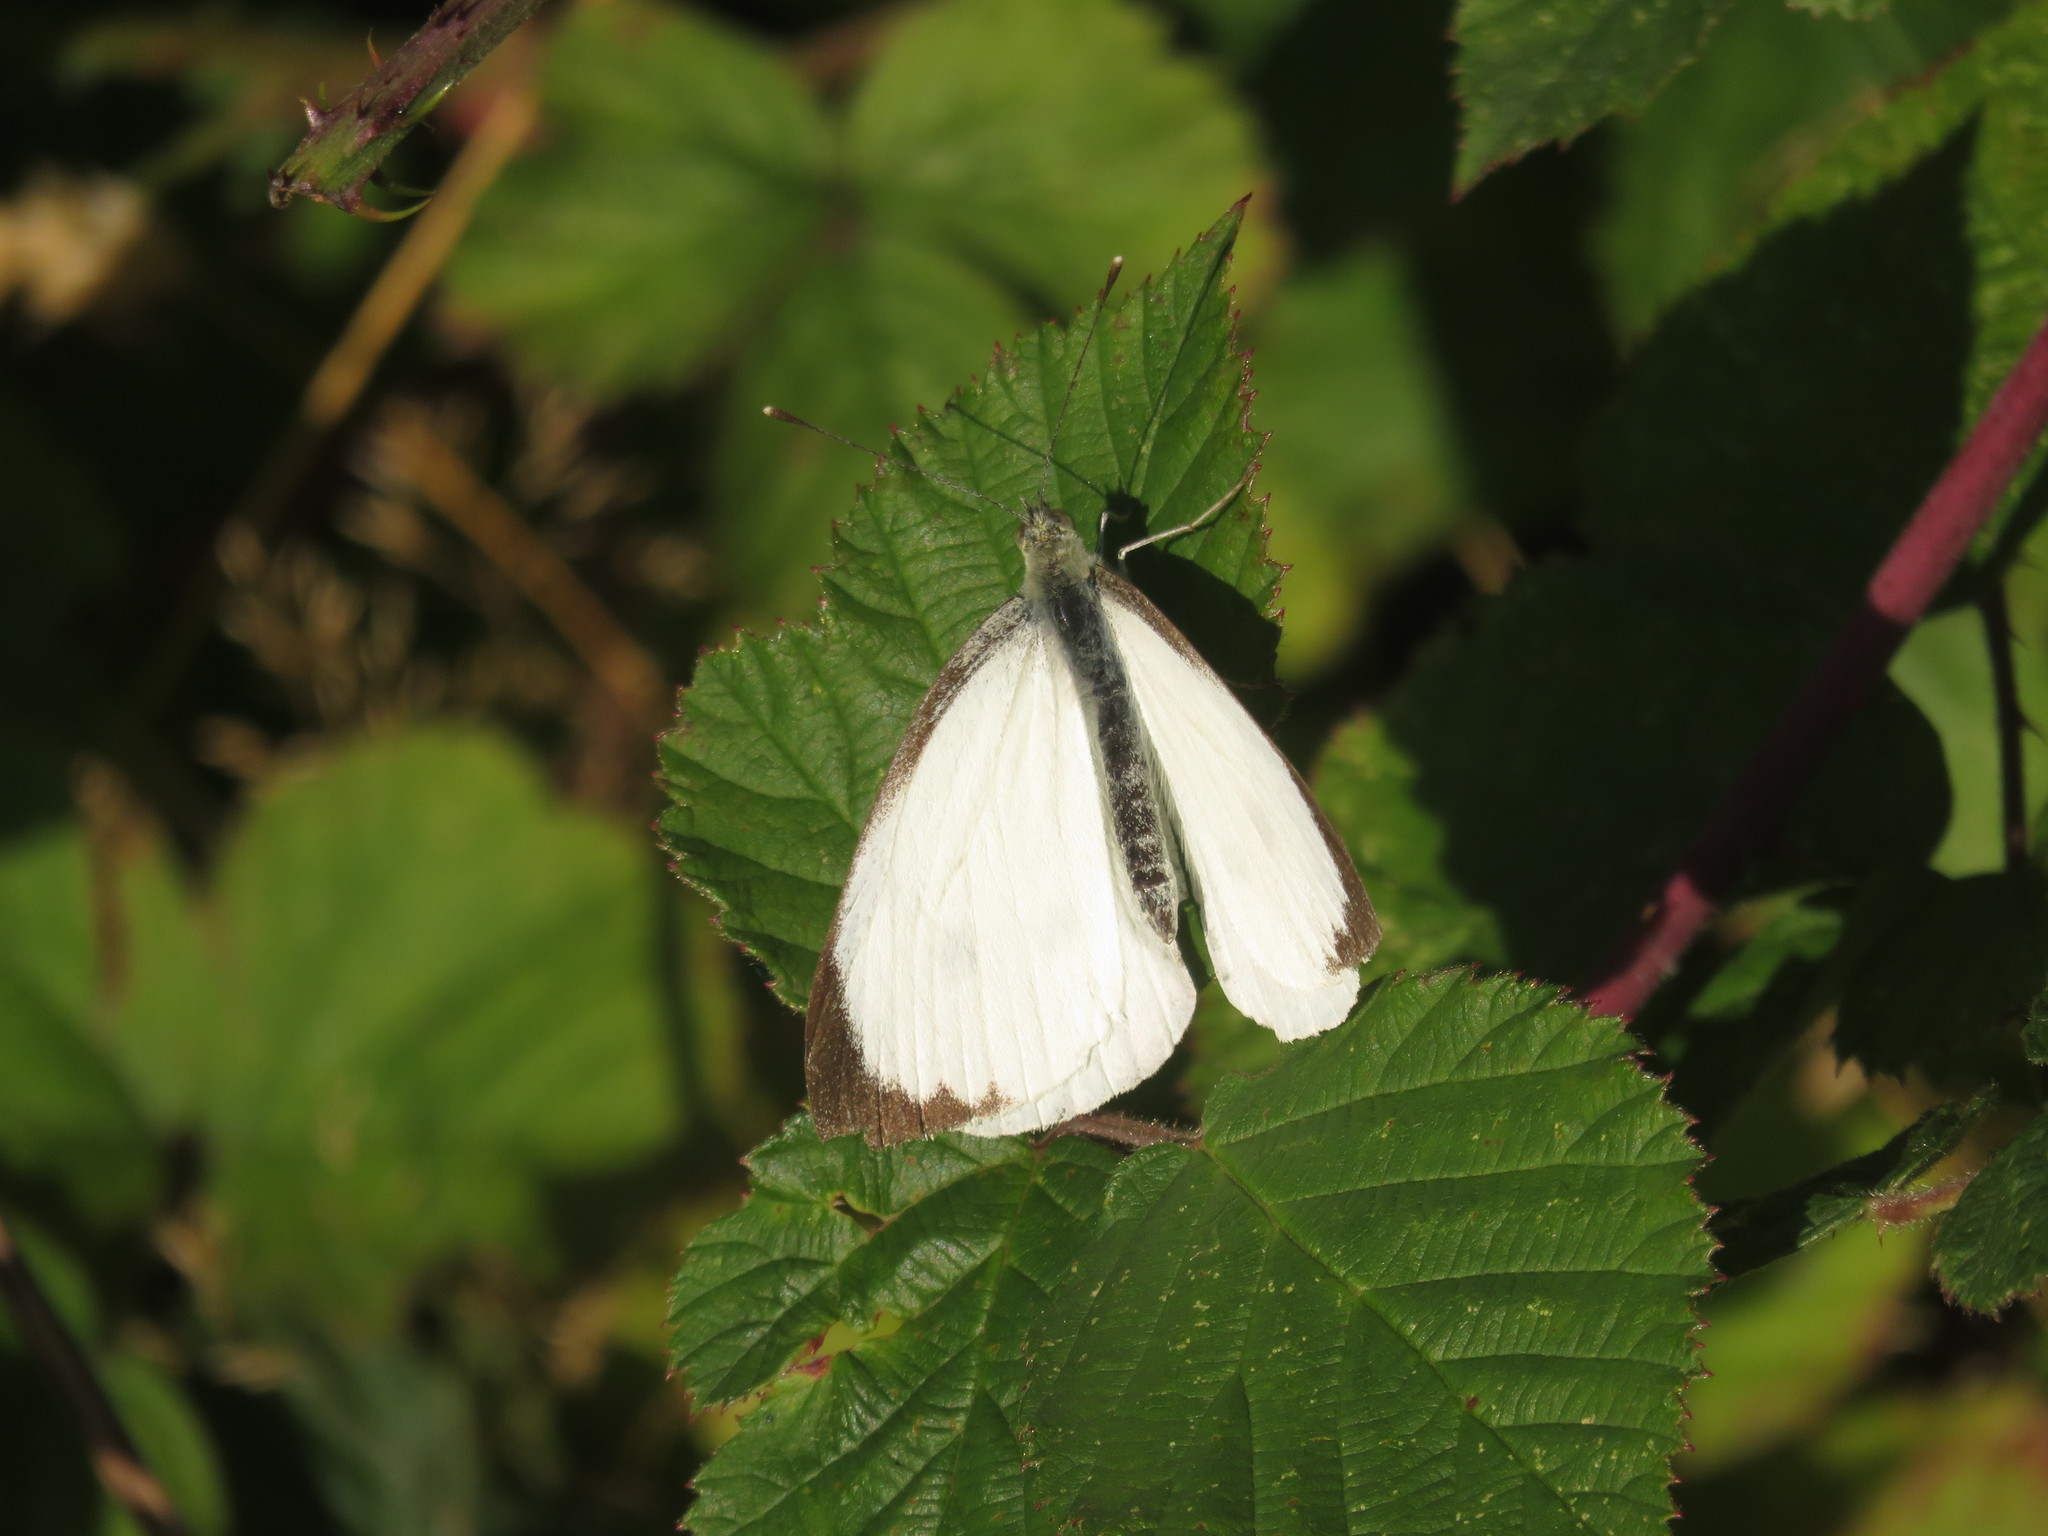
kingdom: Animalia
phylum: Arthropoda
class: Insecta
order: Lepidoptera
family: Pieridae
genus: Pieris
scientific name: Pieris brassicae
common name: Large white
